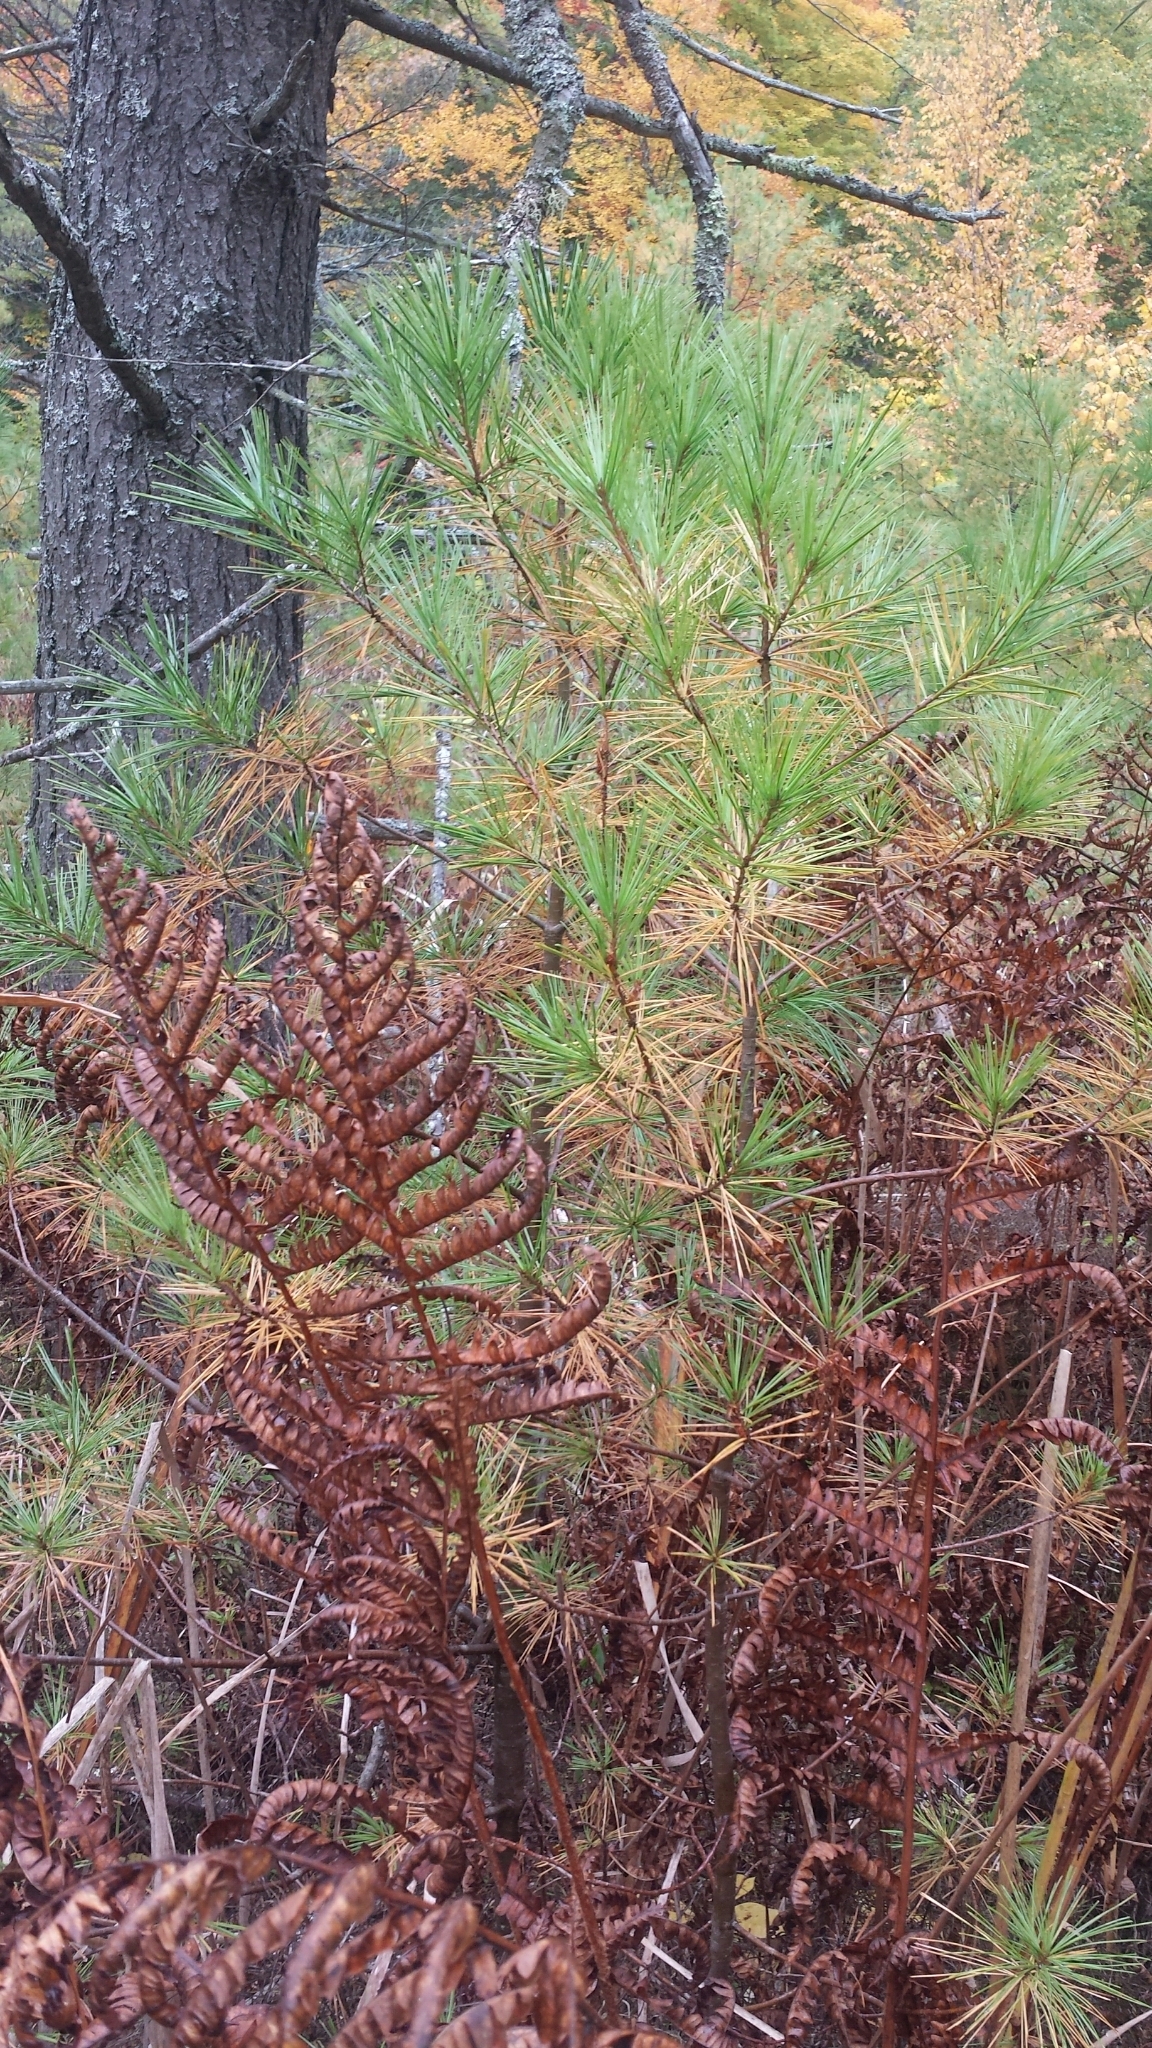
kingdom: Plantae
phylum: Tracheophyta
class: Pinopsida
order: Pinales
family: Pinaceae
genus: Pinus
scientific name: Pinus strobus
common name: Weymouth pine
